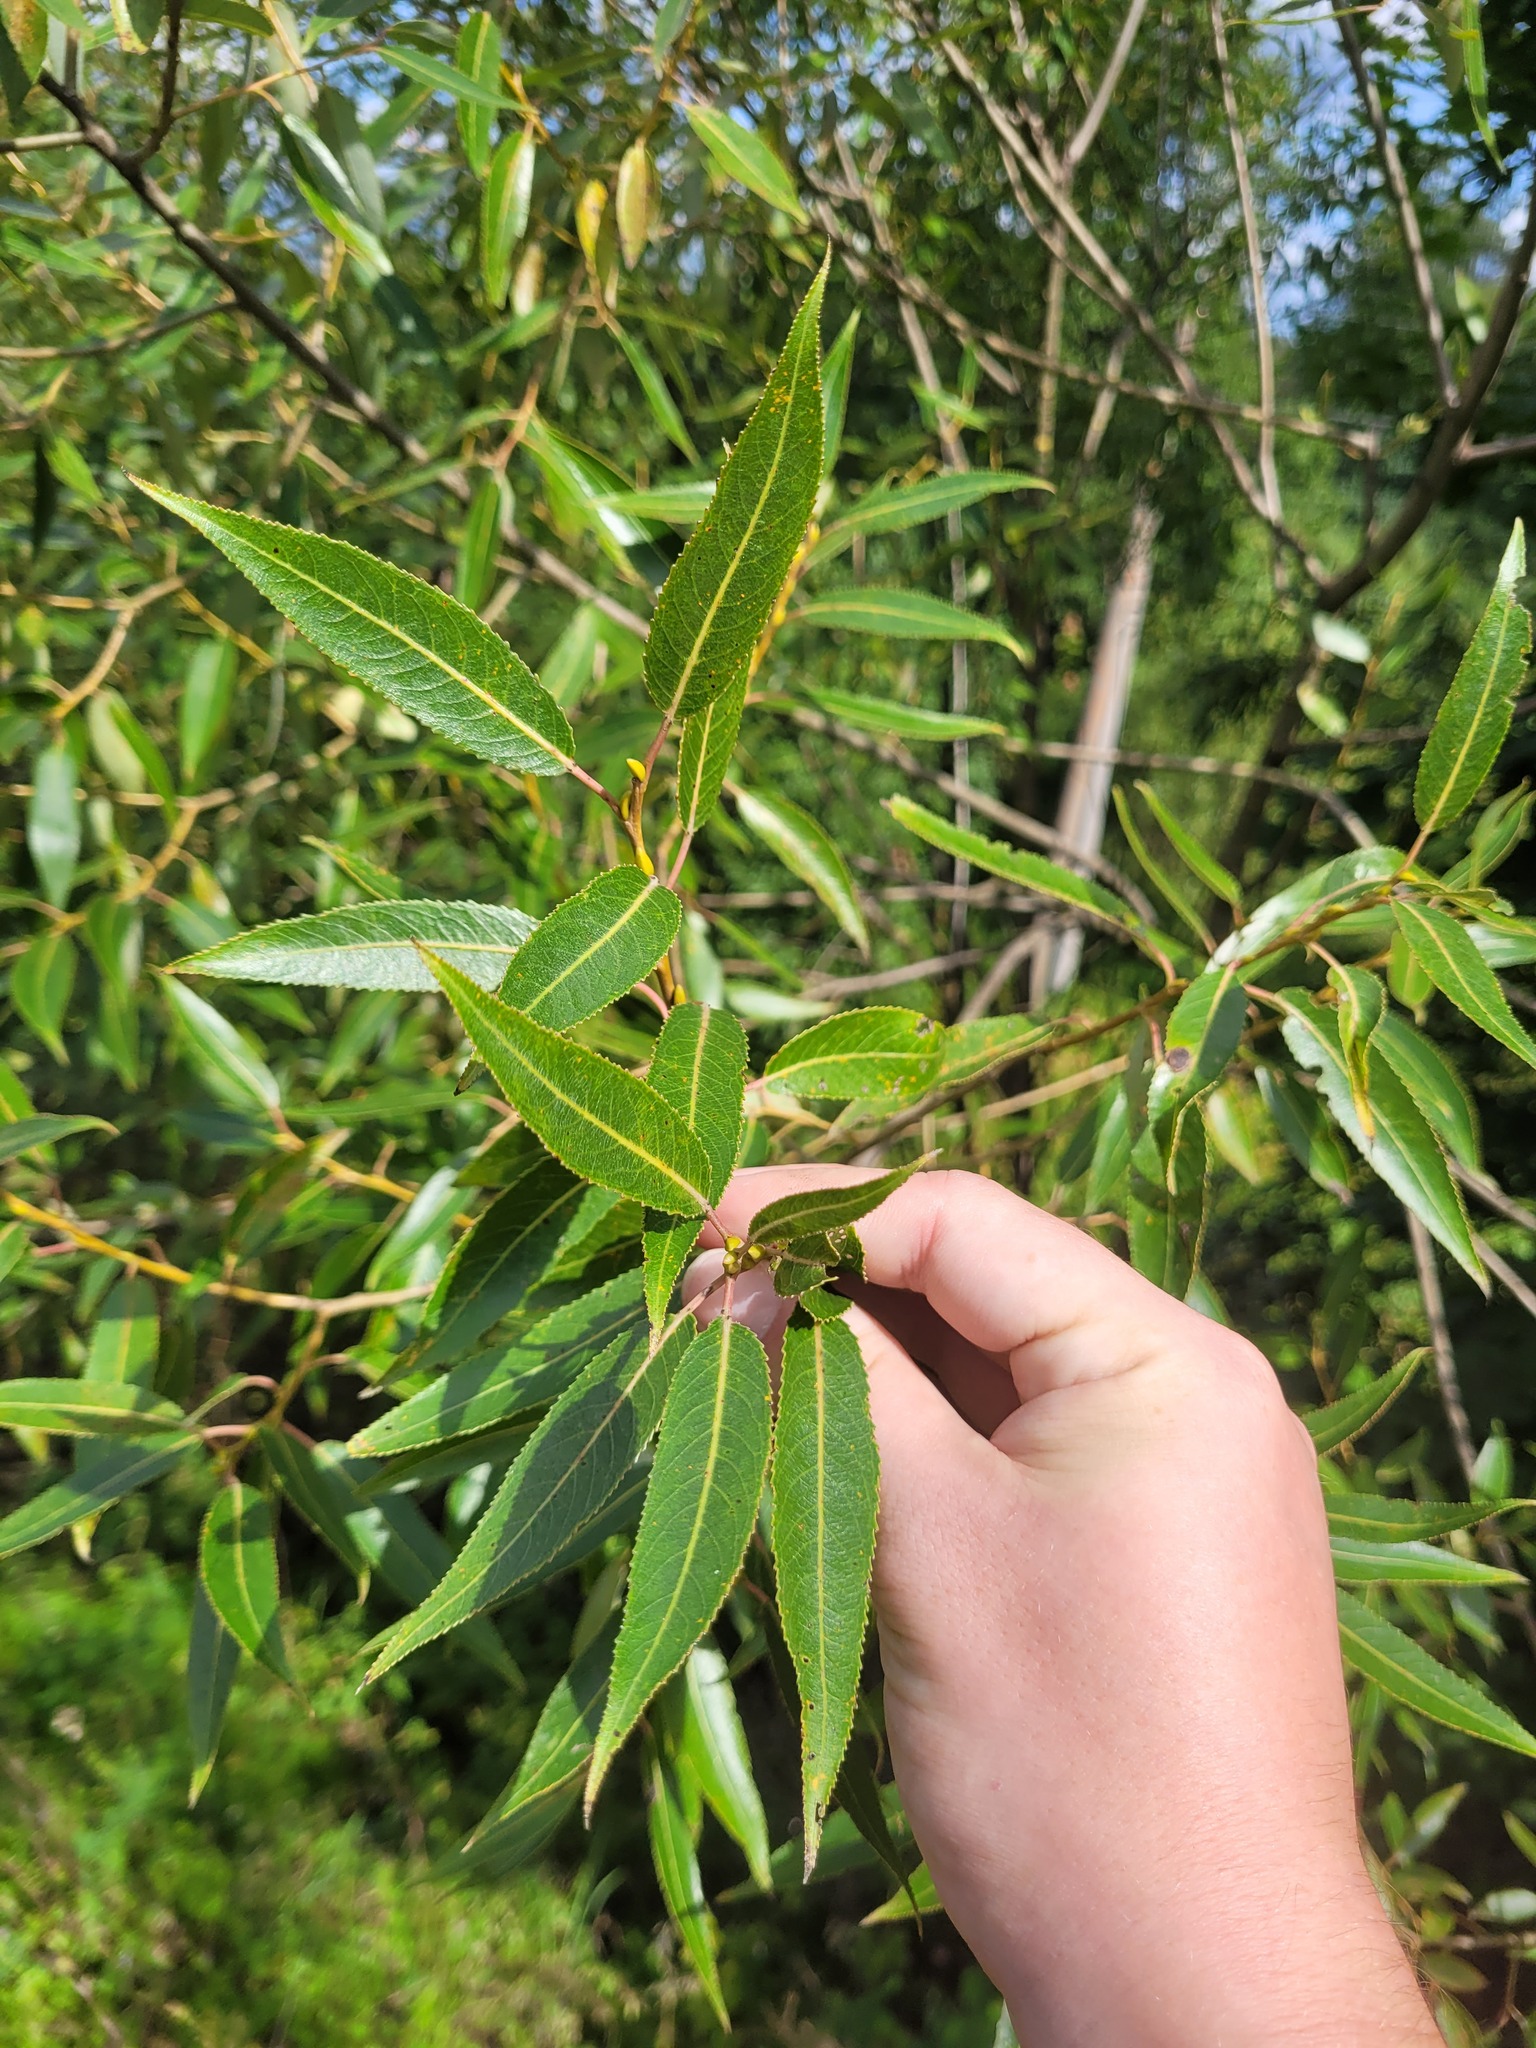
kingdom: Plantae
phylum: Tracheophyta
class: Magnoliopsida
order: Malpighiales
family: Salicaceae
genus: Salix
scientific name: Salix alba
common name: White willow
